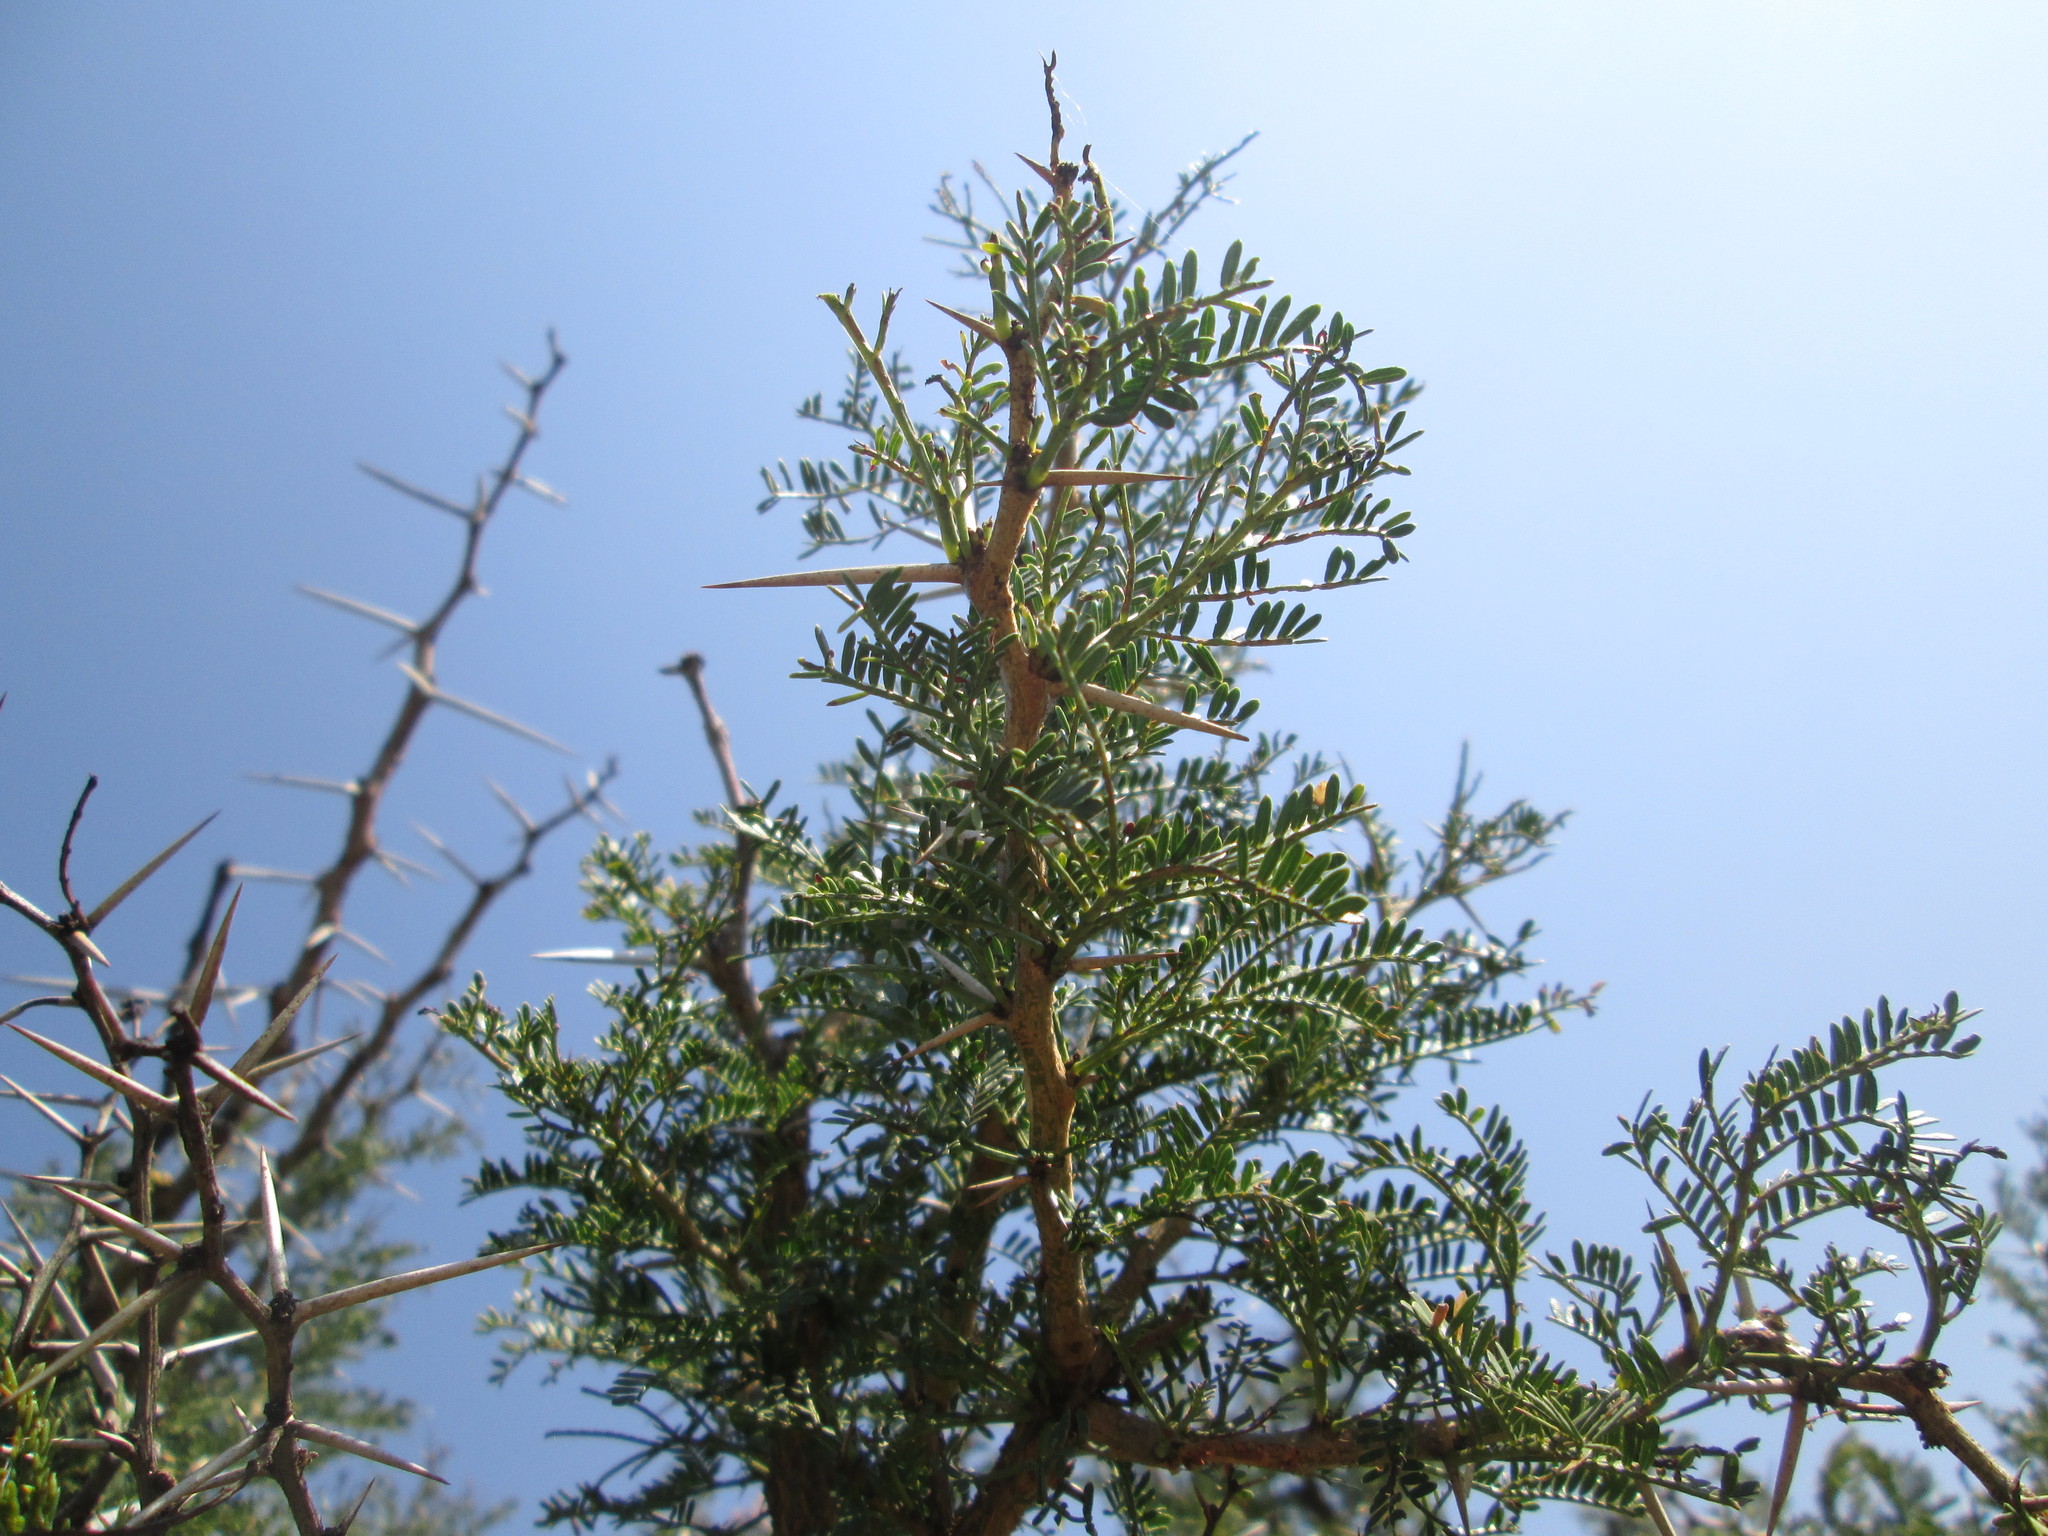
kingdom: Plantae
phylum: Tracheophyta
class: Magnoliopsida
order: Fabales
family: Fabaceae
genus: Vachellia
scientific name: Vachellia karroo
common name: Sweet thorn
